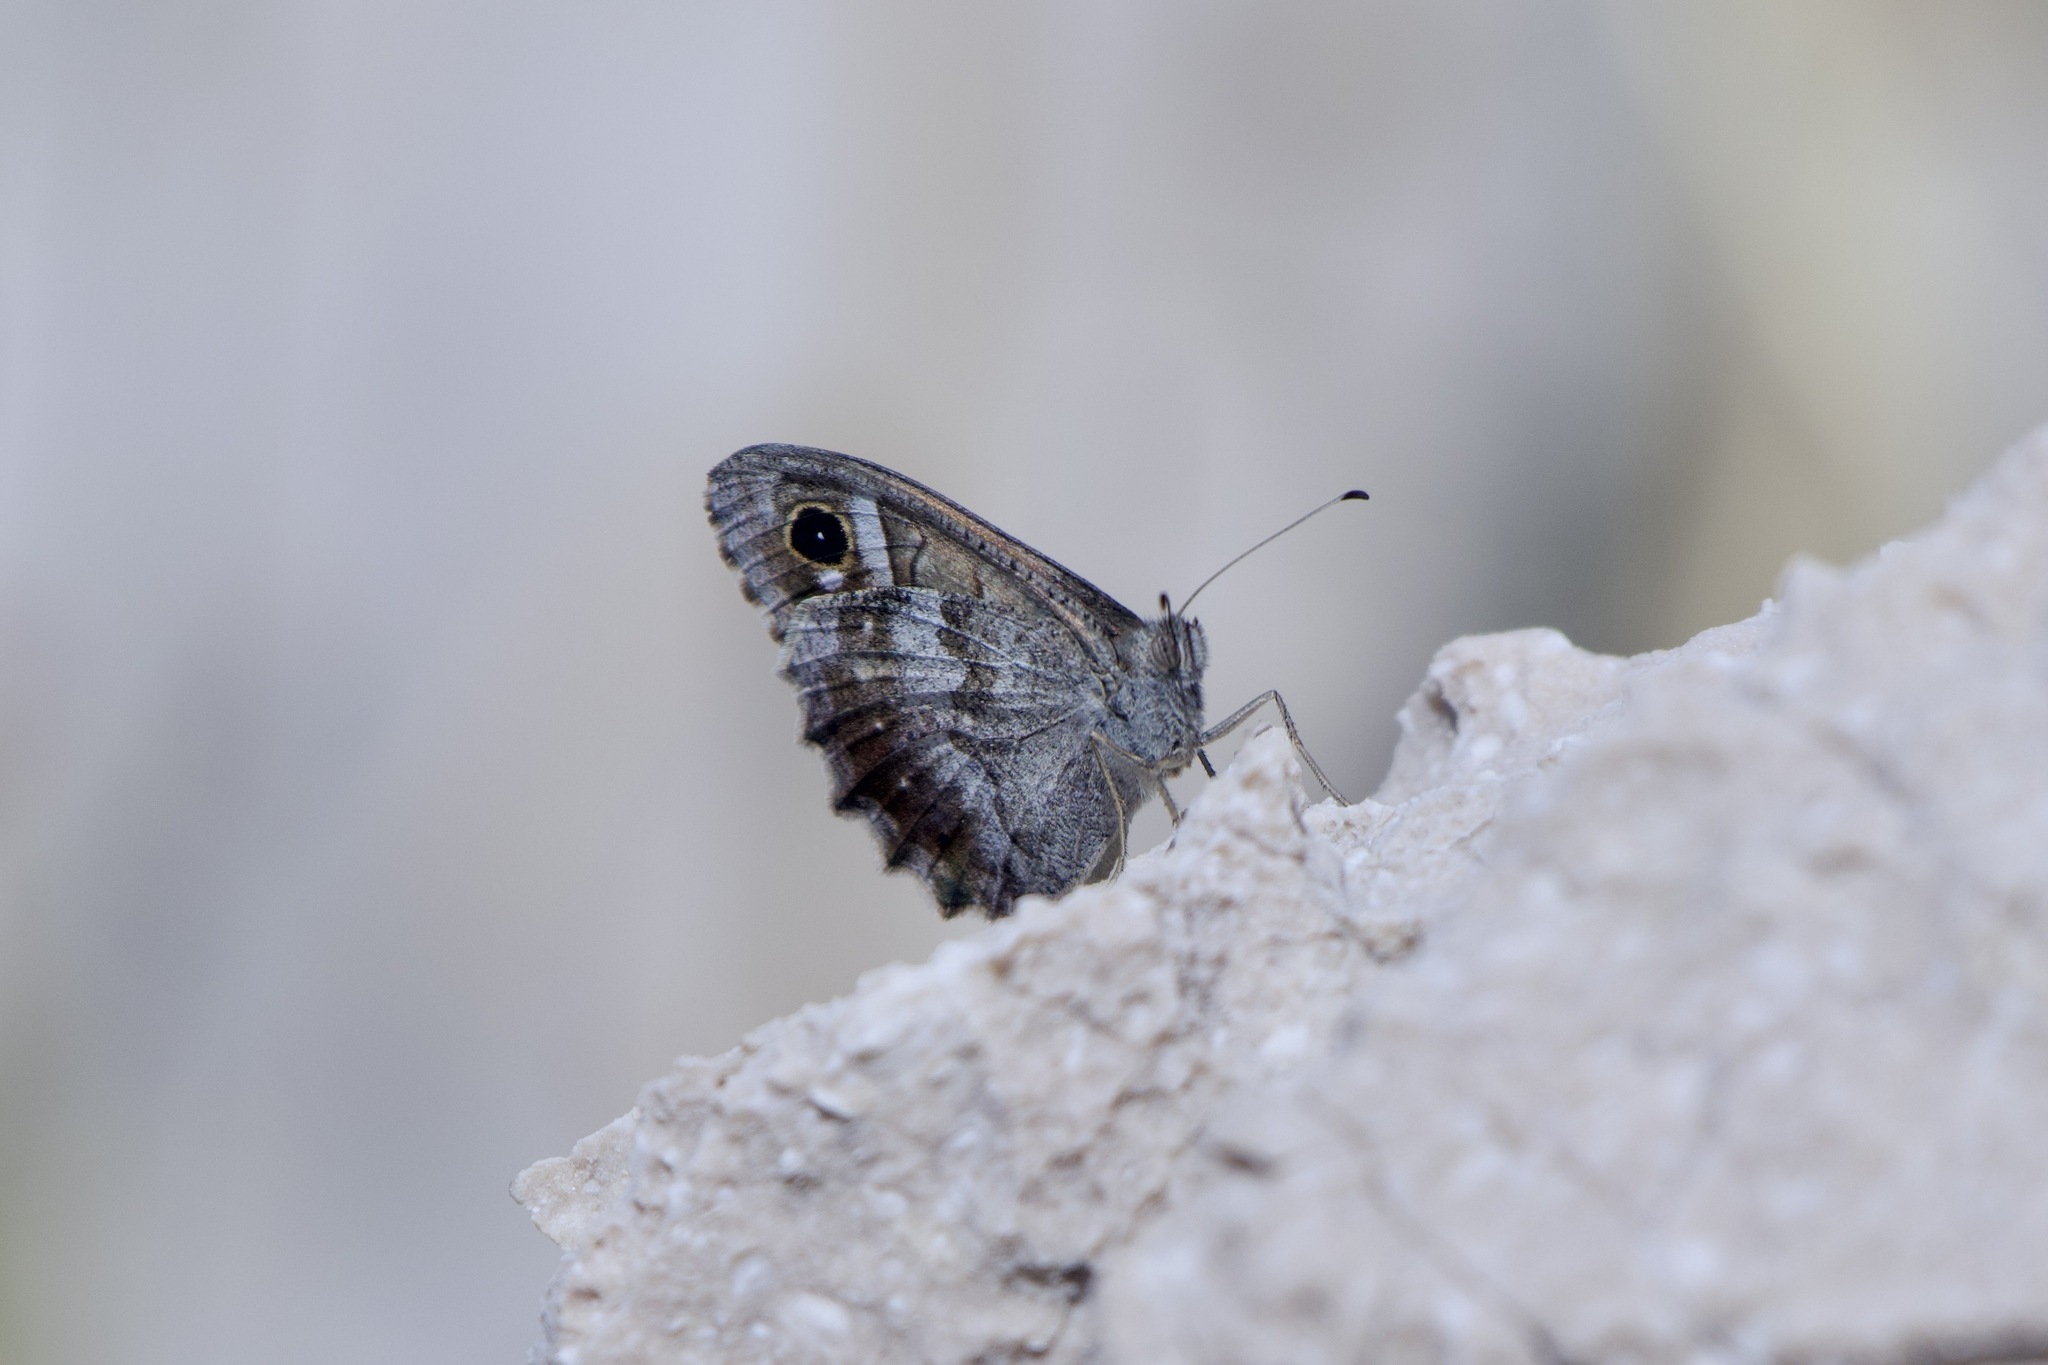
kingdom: Animalia
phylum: Arthropoda
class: Insecta
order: Lepidoptera
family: Nymphalidae
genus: Hipparchia
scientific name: Hipparchia statilinus
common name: Tree grayling
